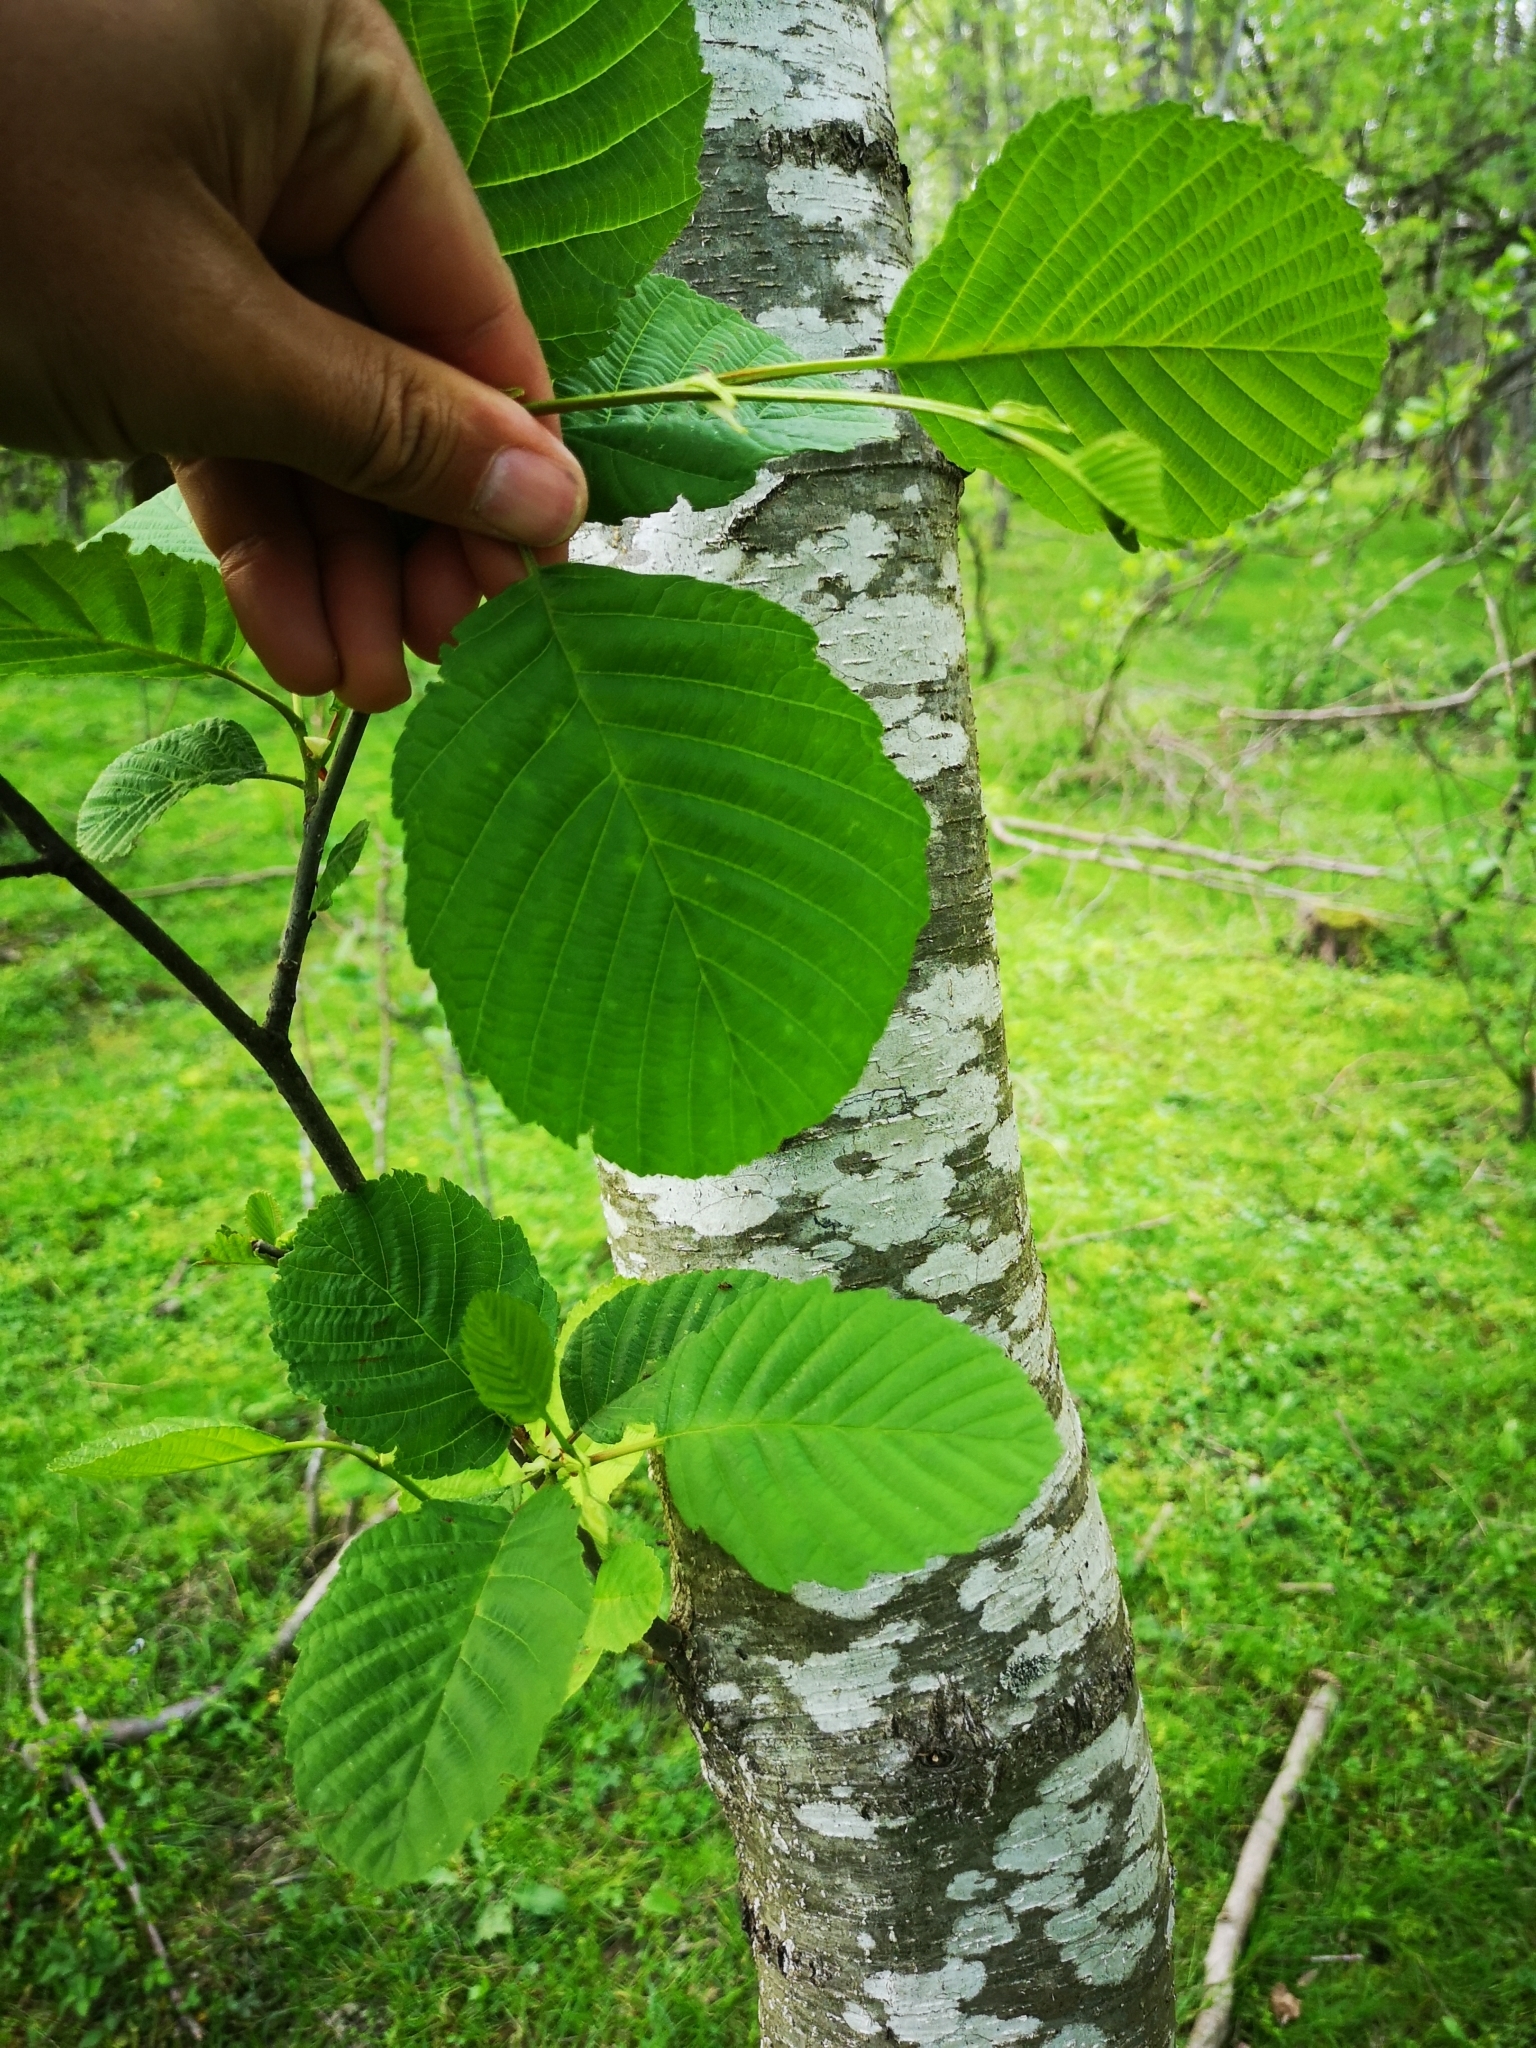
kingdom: Plantae
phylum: Tracheophyta
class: Magnoliopsida
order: Fagales
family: Betulaceae
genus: Alnus
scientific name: Alnus glutinosa
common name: Black alder
